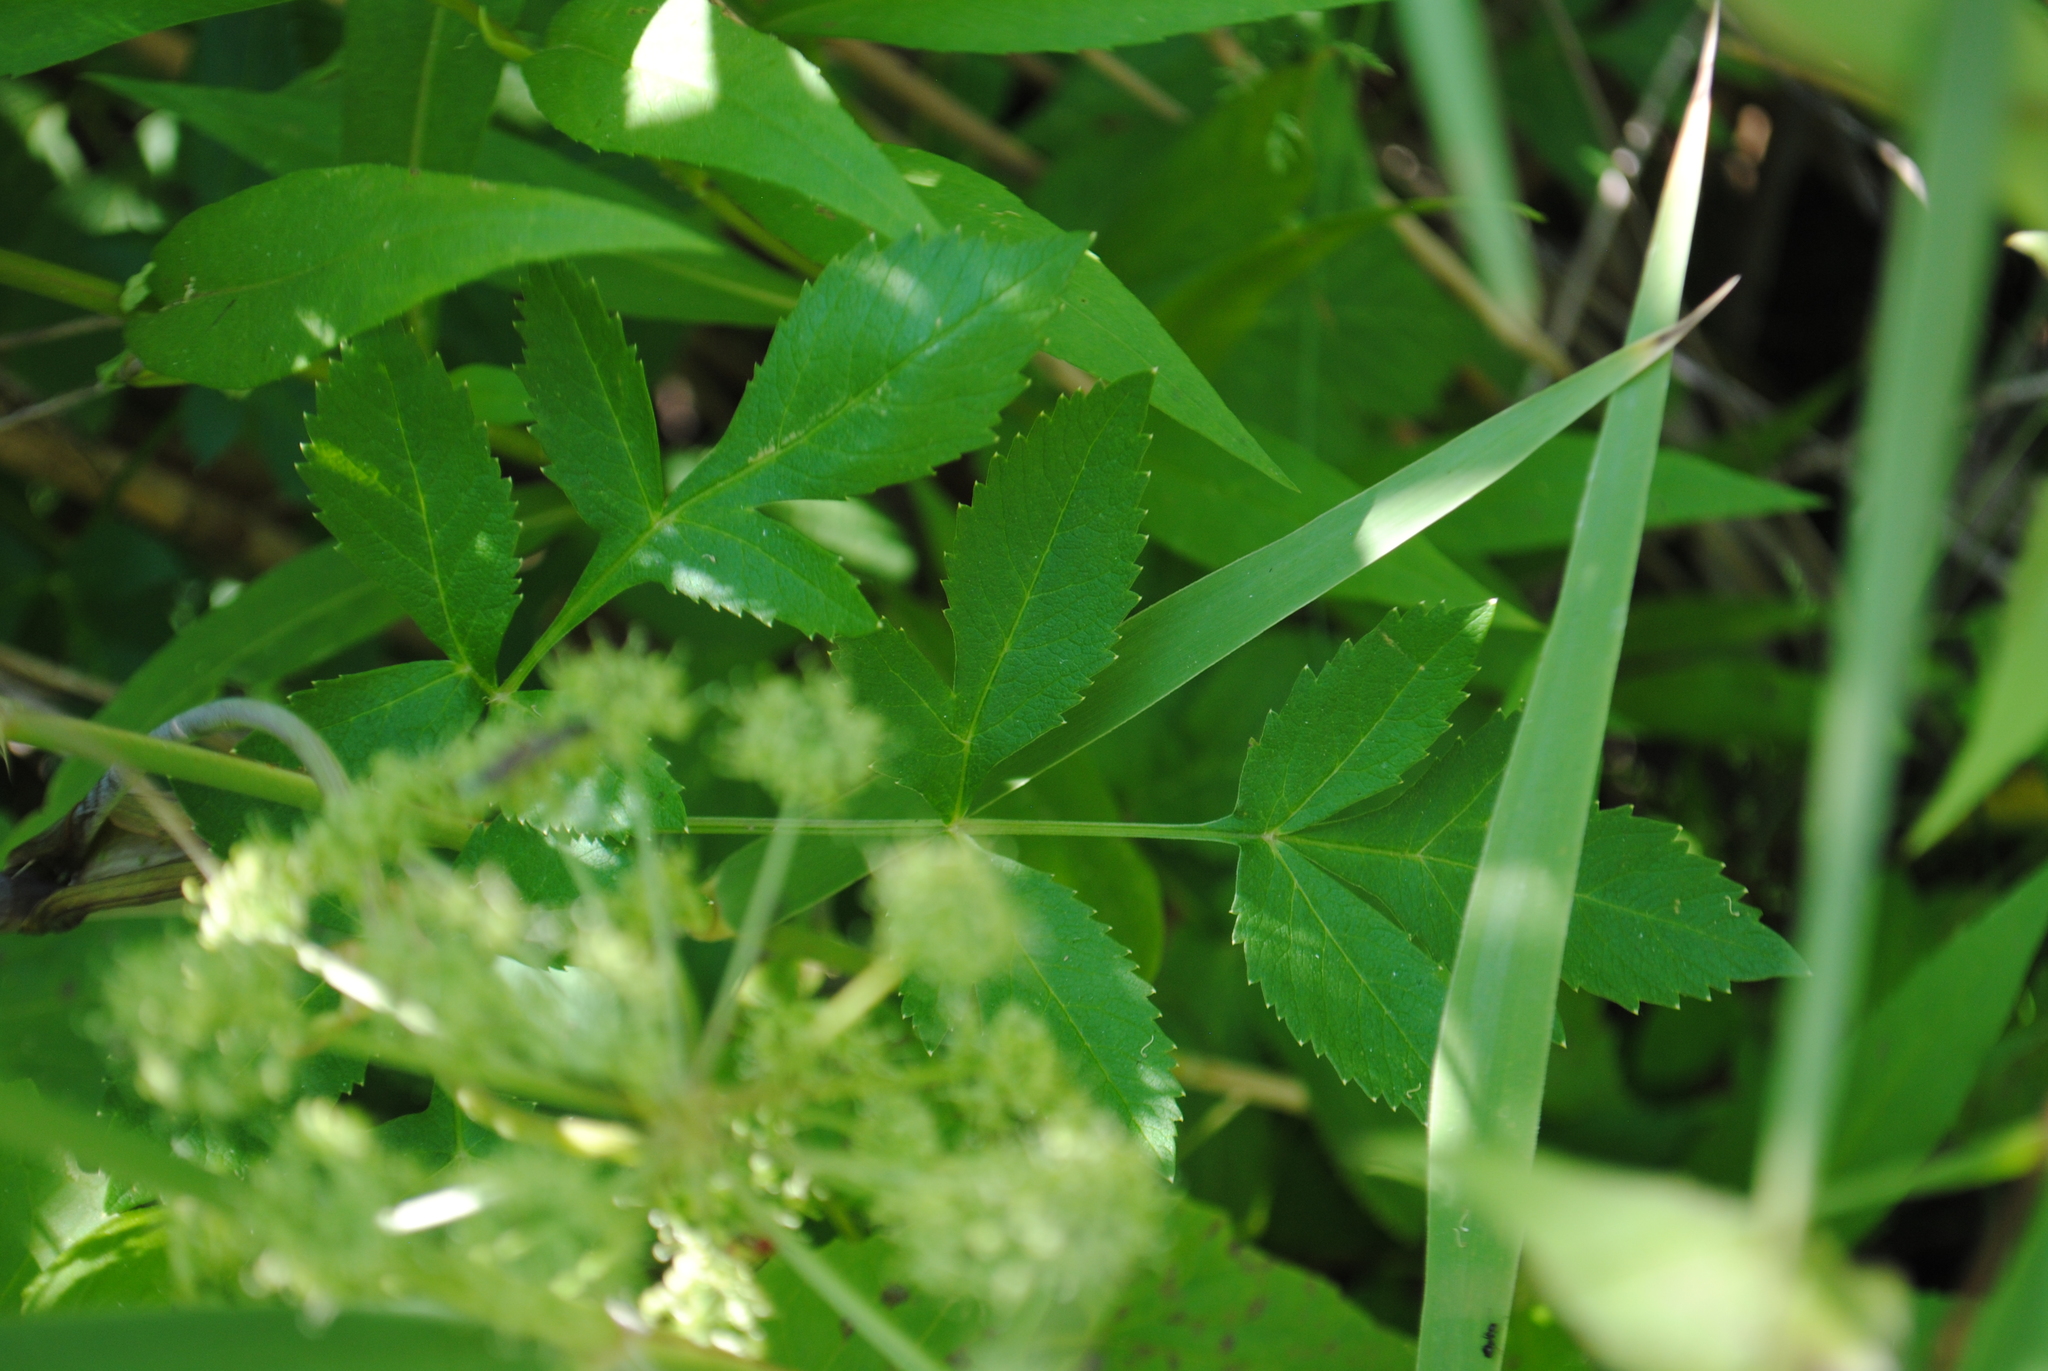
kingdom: Plantae
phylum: Tracheophyta
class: Magnoliopsida
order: Apiales
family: Apiaceae
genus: Angelica
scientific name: Angelica atropurpurea
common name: Great angelica
